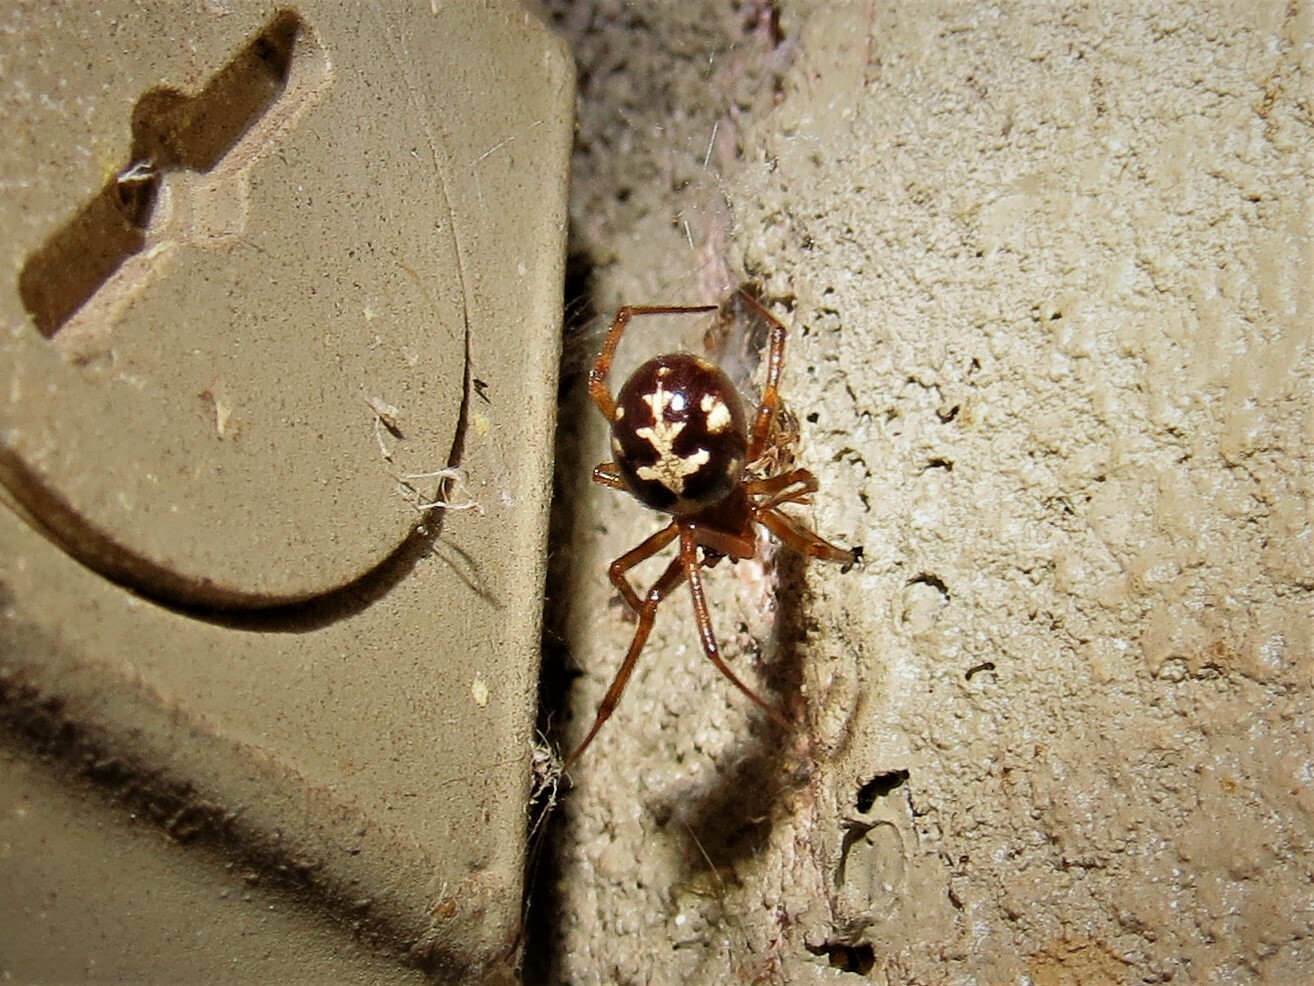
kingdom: Animalia
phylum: Arthropoda
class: Arachnida
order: Araneae
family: Theridiidae
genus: Steatoda
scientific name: Steatoda triangulosa
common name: Triangulate bud spider
